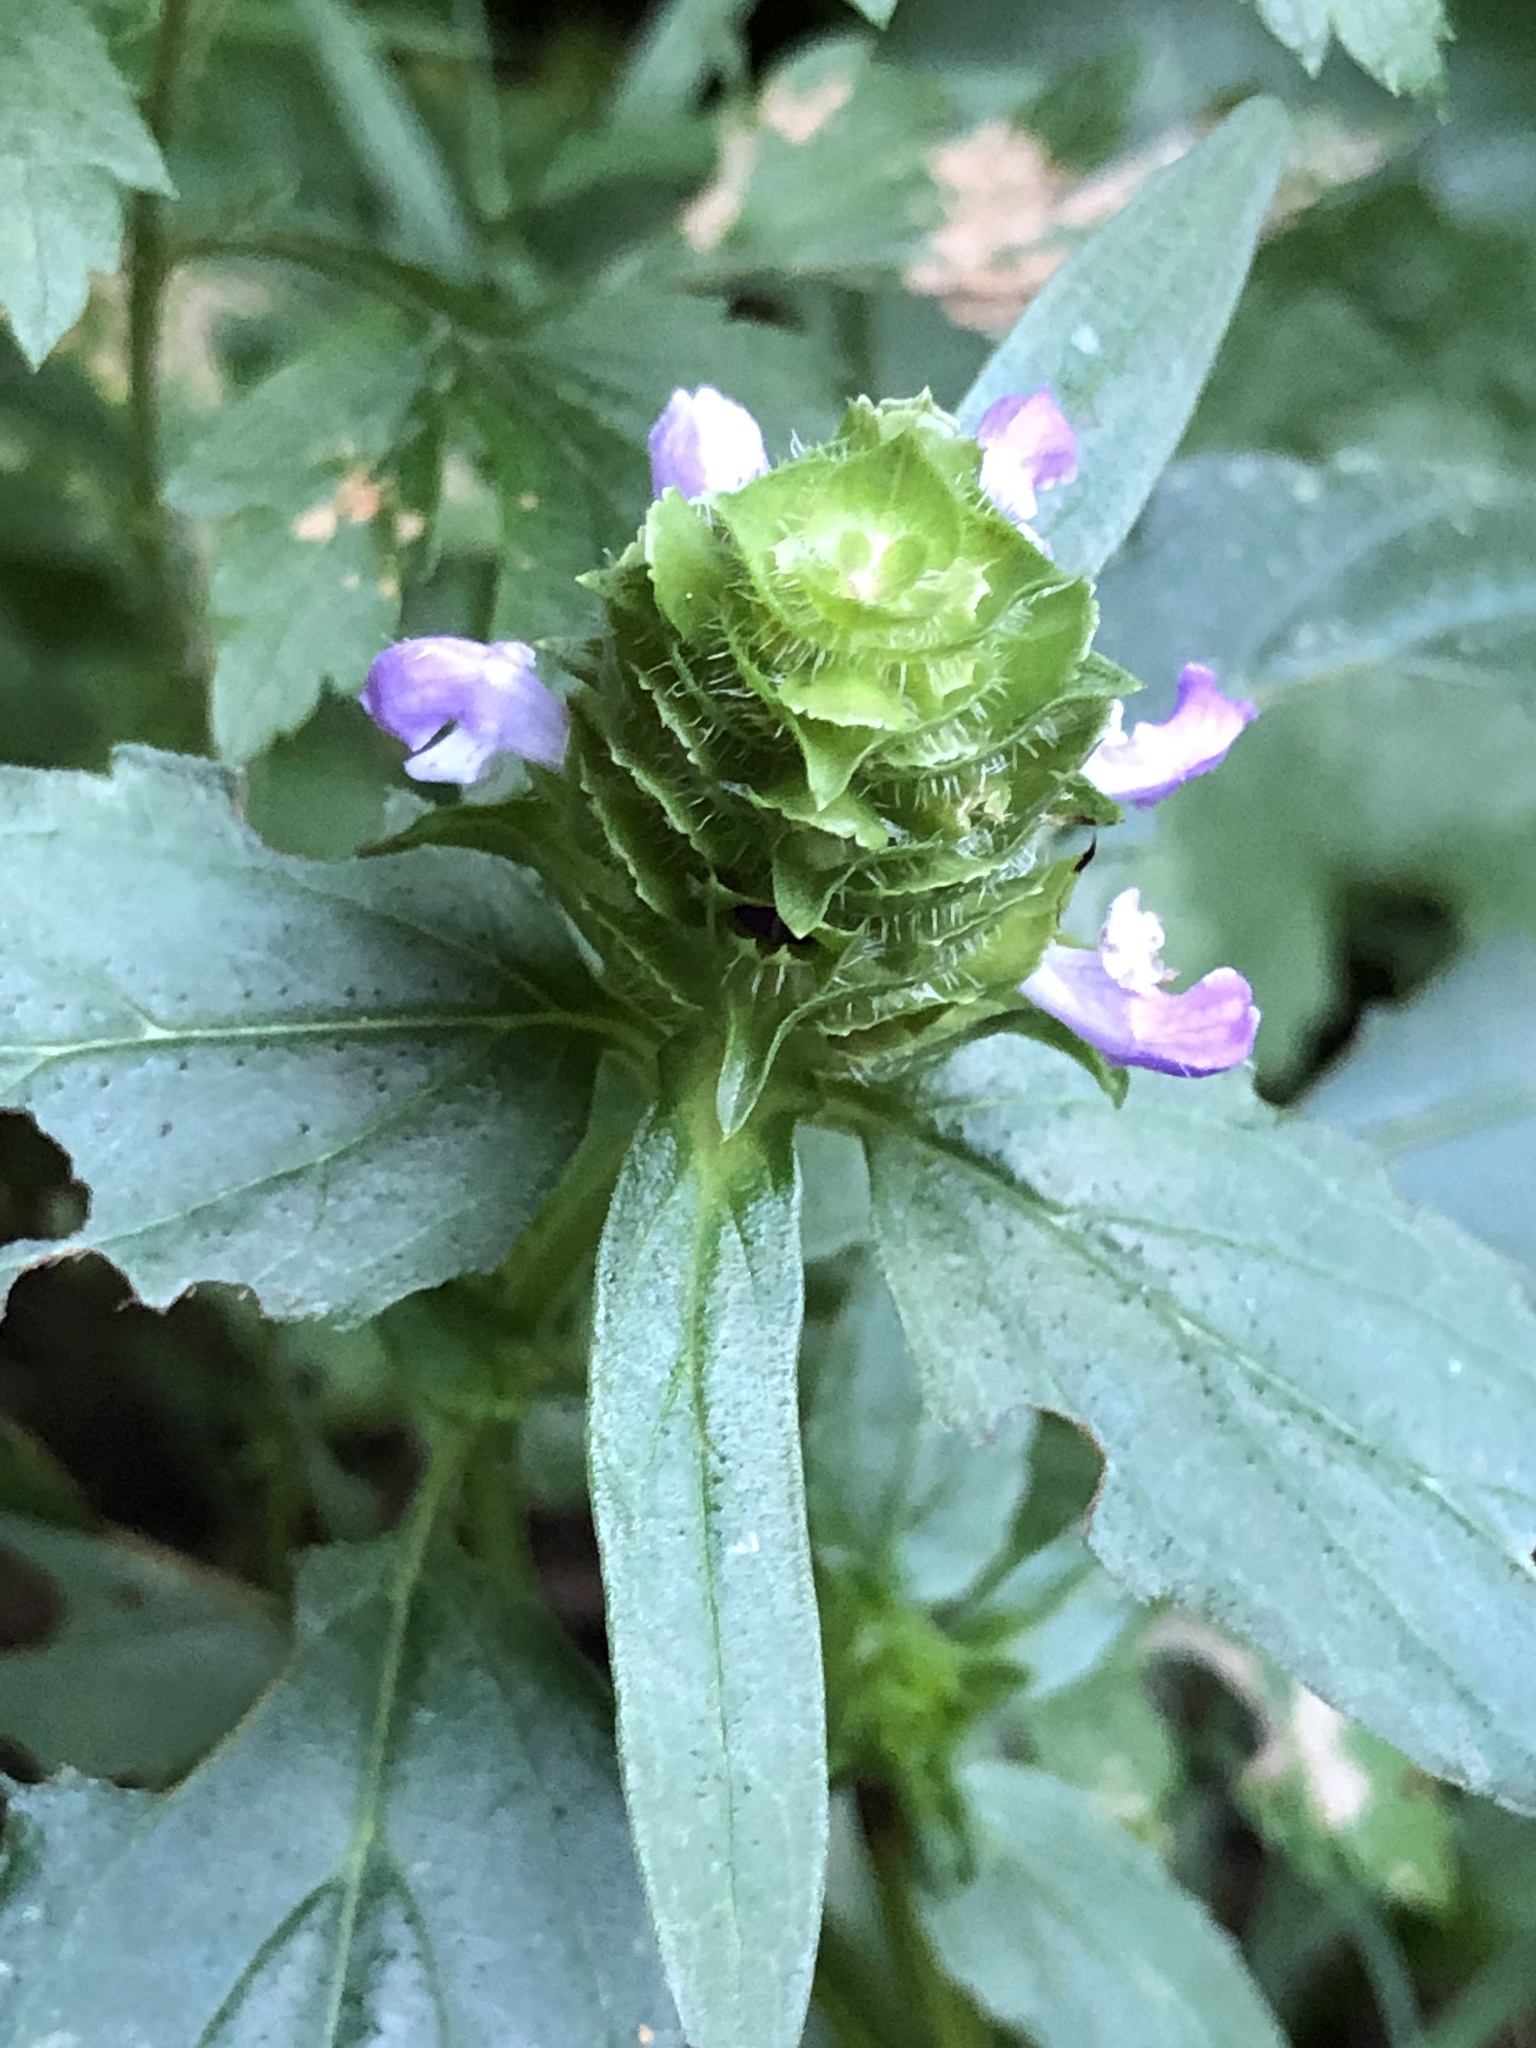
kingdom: Plantae
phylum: Tracheophyta
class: Magnoliopsida
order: Lamiales
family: Lamiaceae
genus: Prunella
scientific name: Prunella vulgaris
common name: Heal-all
